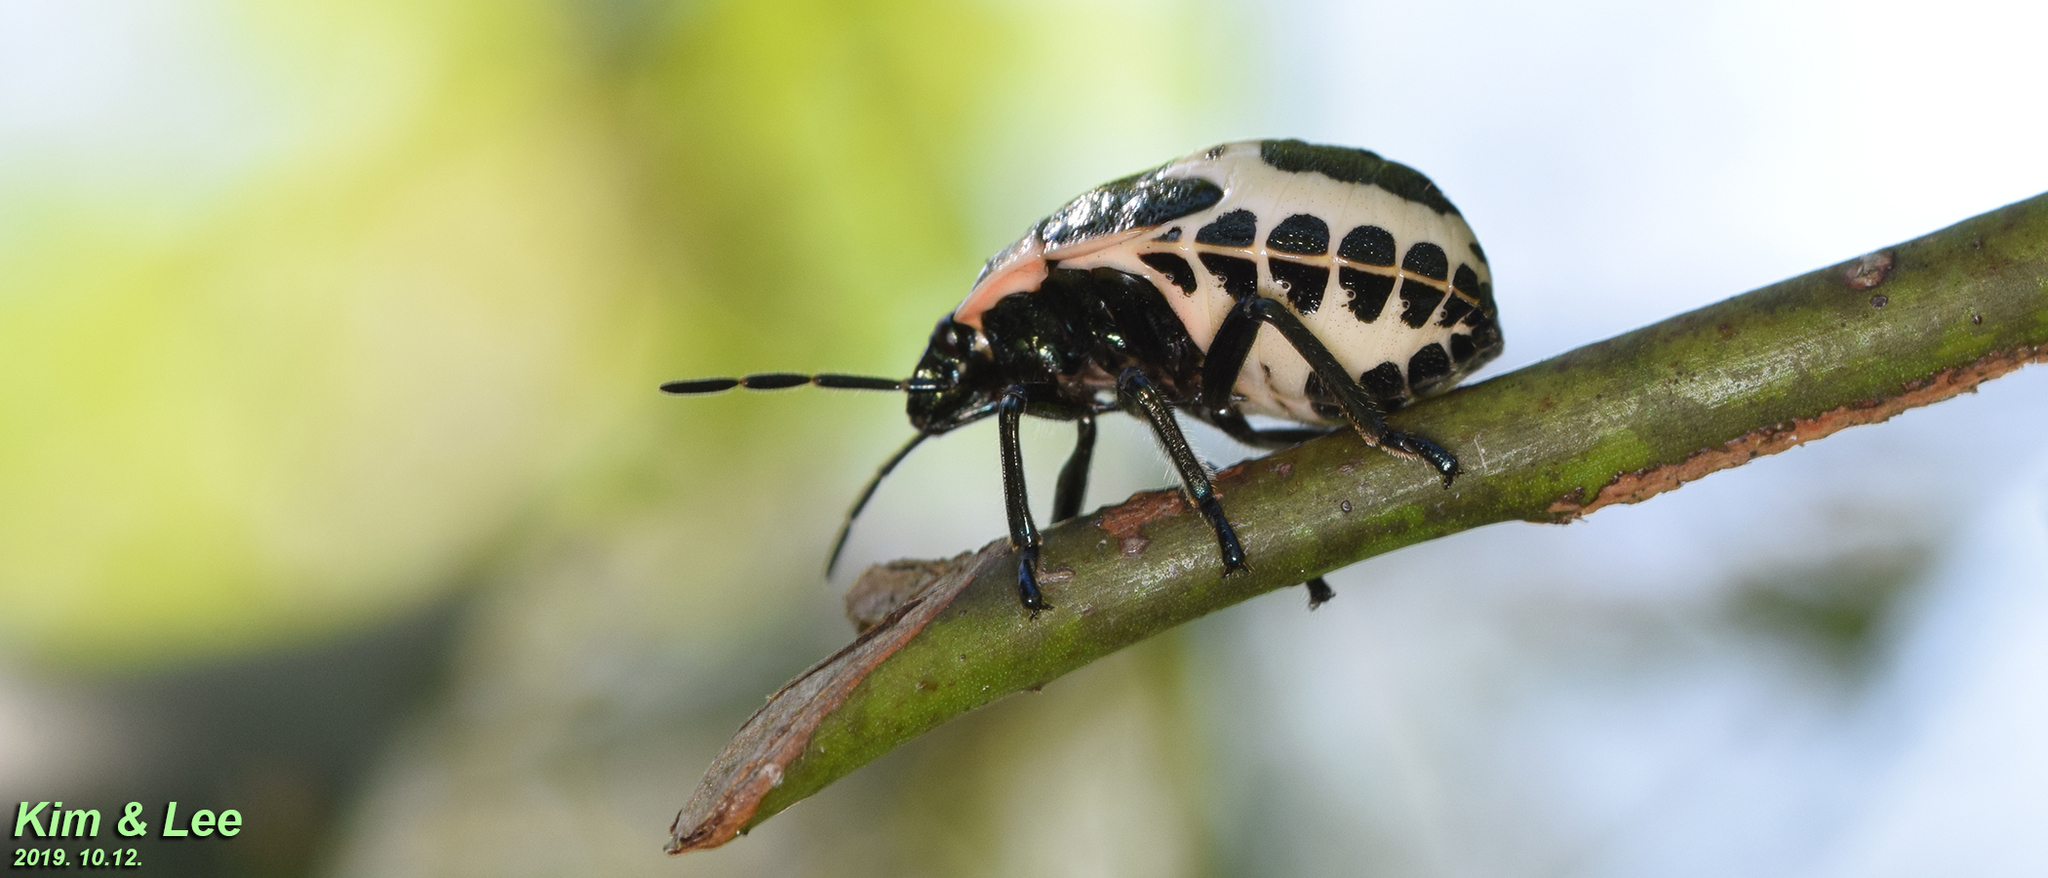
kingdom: Animalia
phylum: Arthropoda
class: Insecta
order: Hemiptera
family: Scutelleridae
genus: Poecilocoris
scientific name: Poecilocoris lewisi
